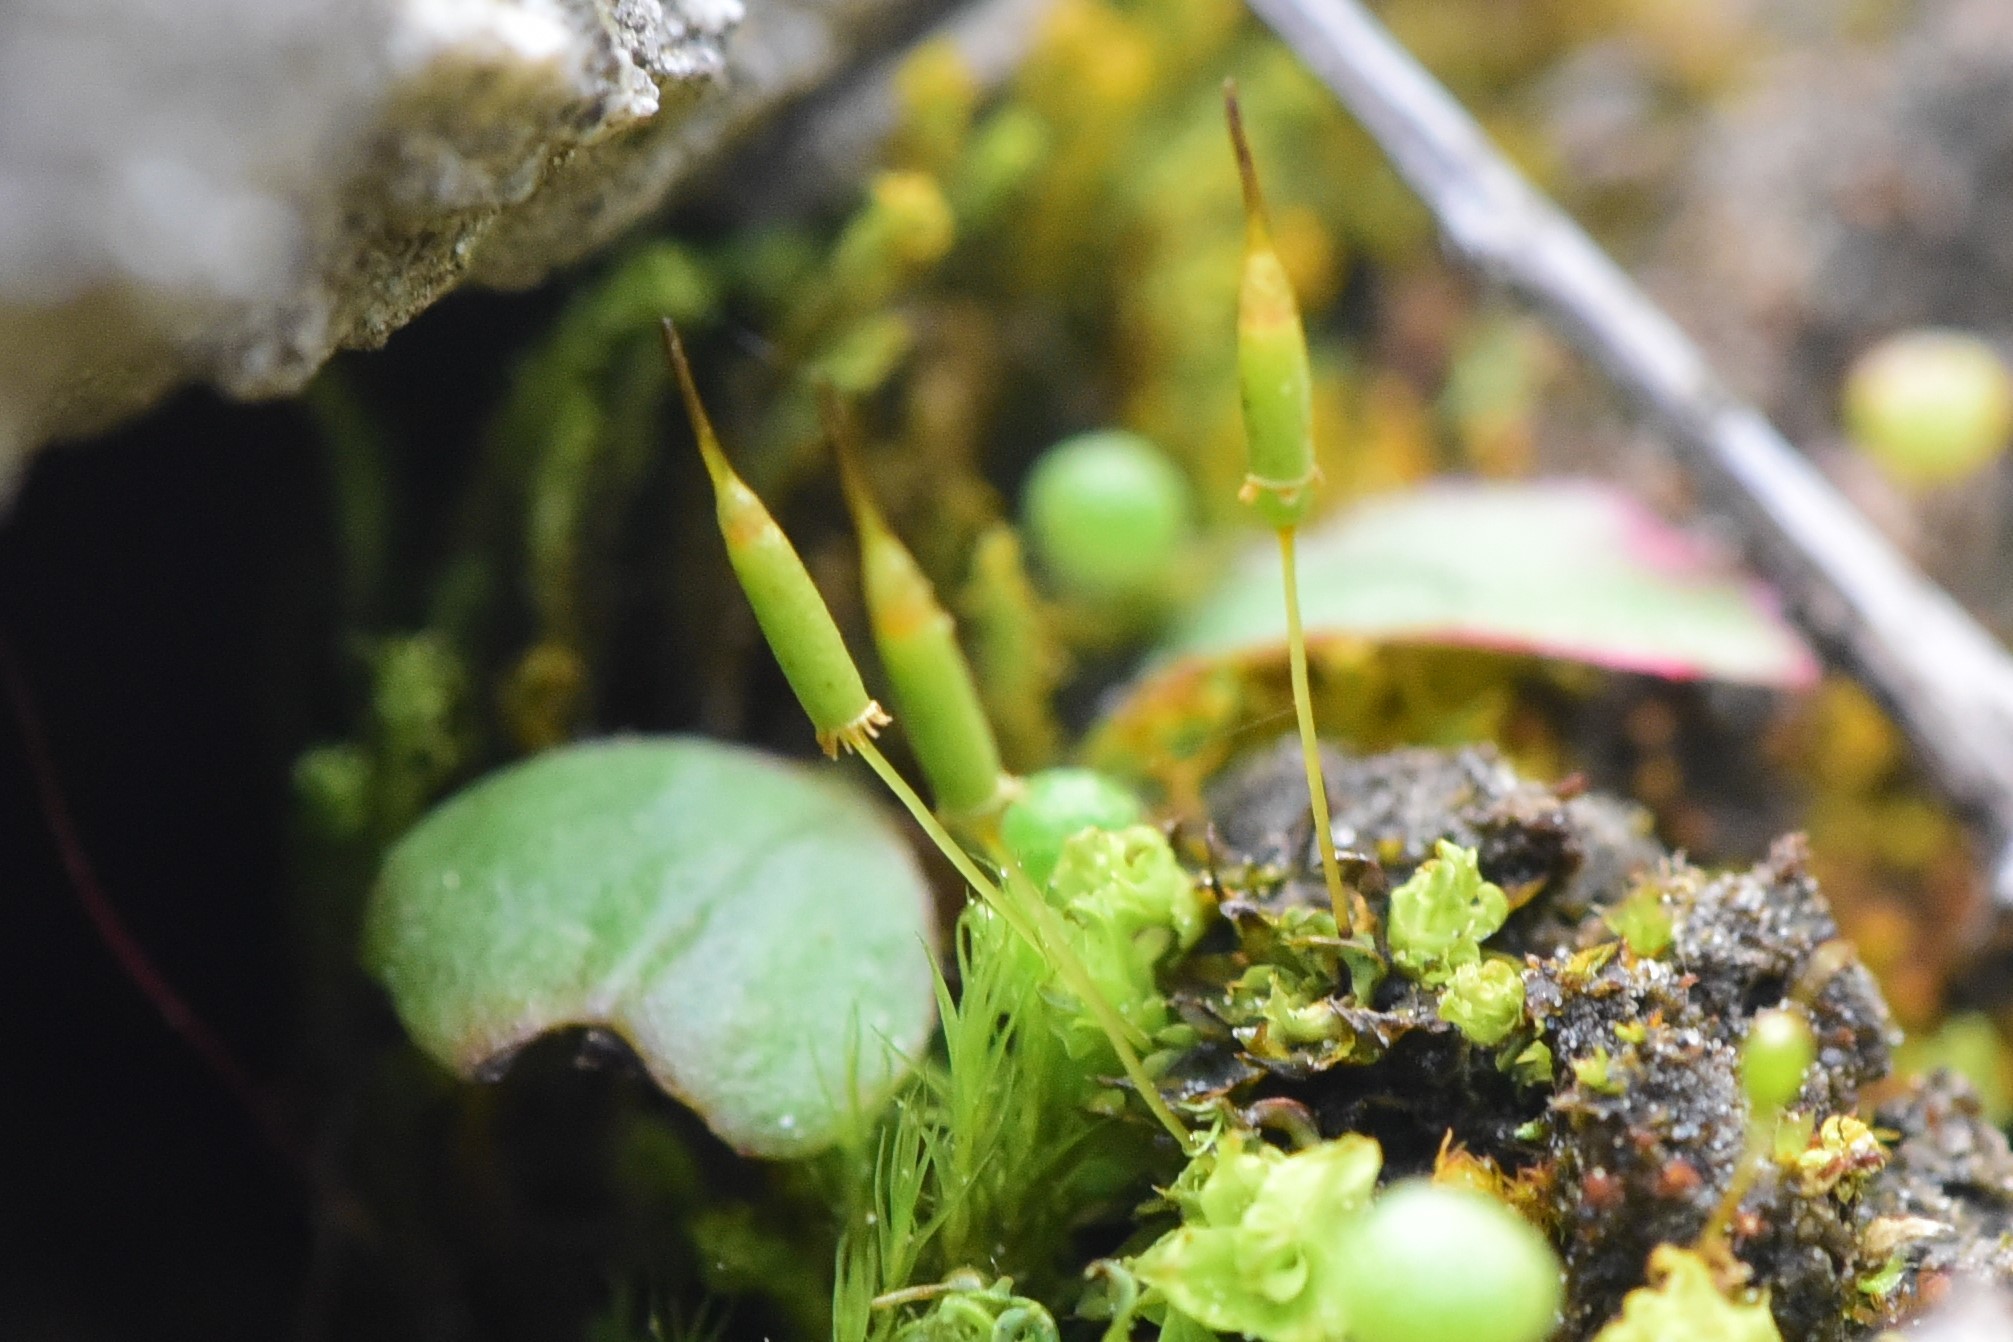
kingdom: Plantae
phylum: Bryophyta
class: Bryopsida
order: Encalyptales
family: Encalyptaceae
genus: Encalypta
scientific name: Encalypta ciliata
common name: Fringed extinguisher-moss
